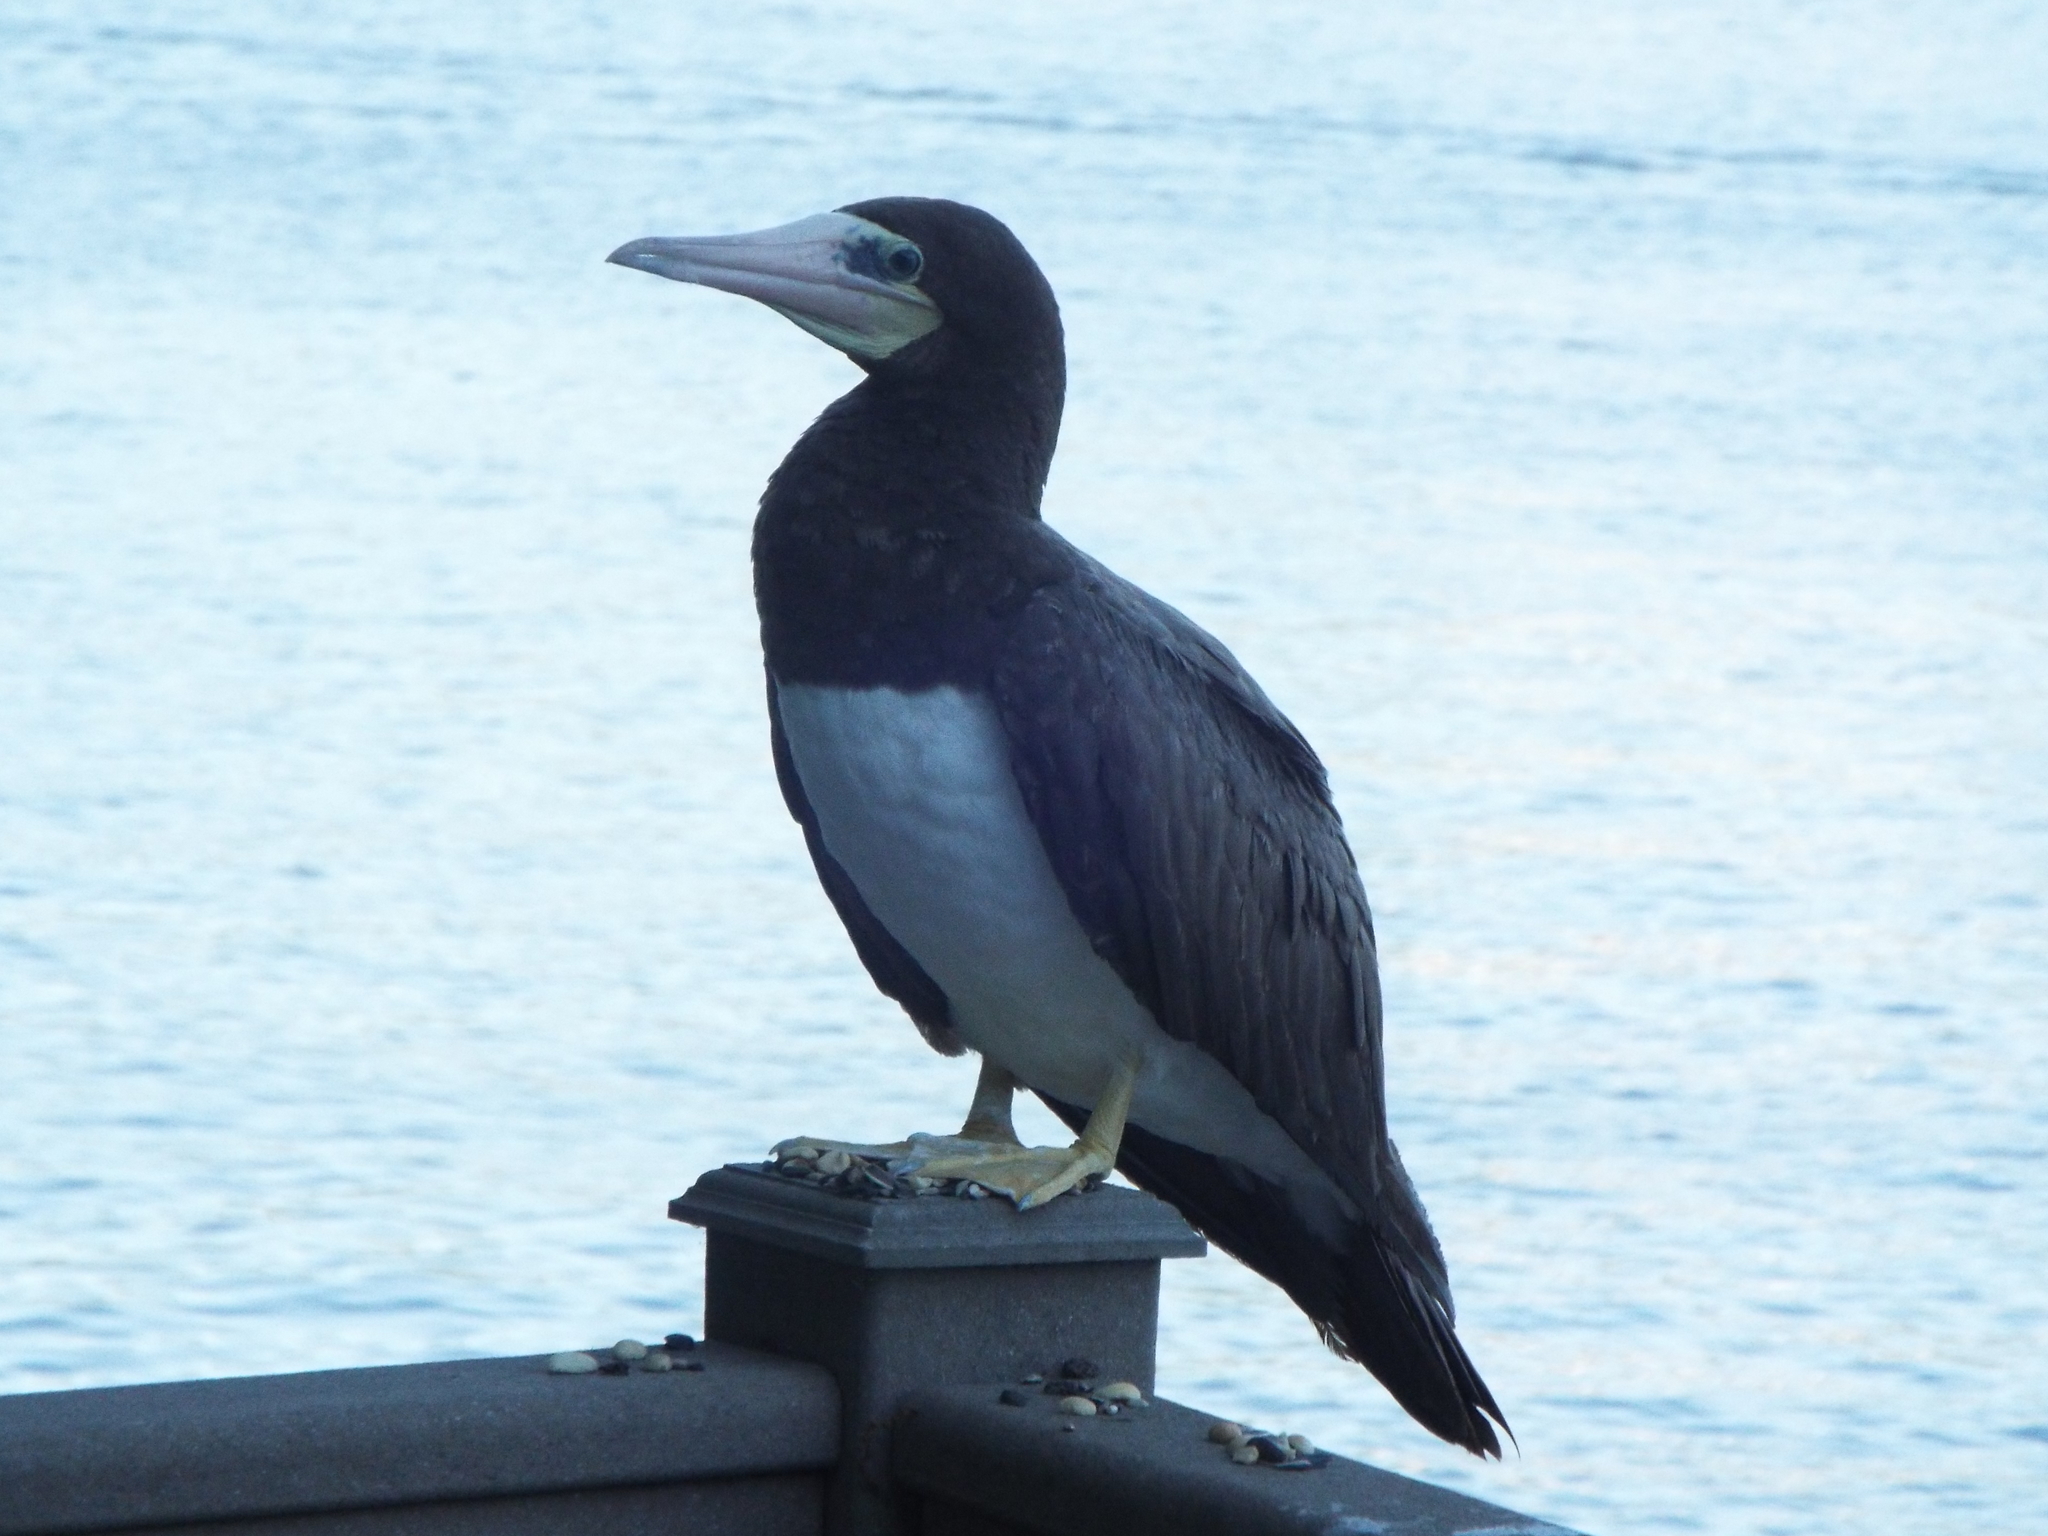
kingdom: Animalia
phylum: Chordata
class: Aves
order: Suliformes
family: Sulidae
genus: Sula
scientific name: Sula leucogaster
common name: Brown booby
